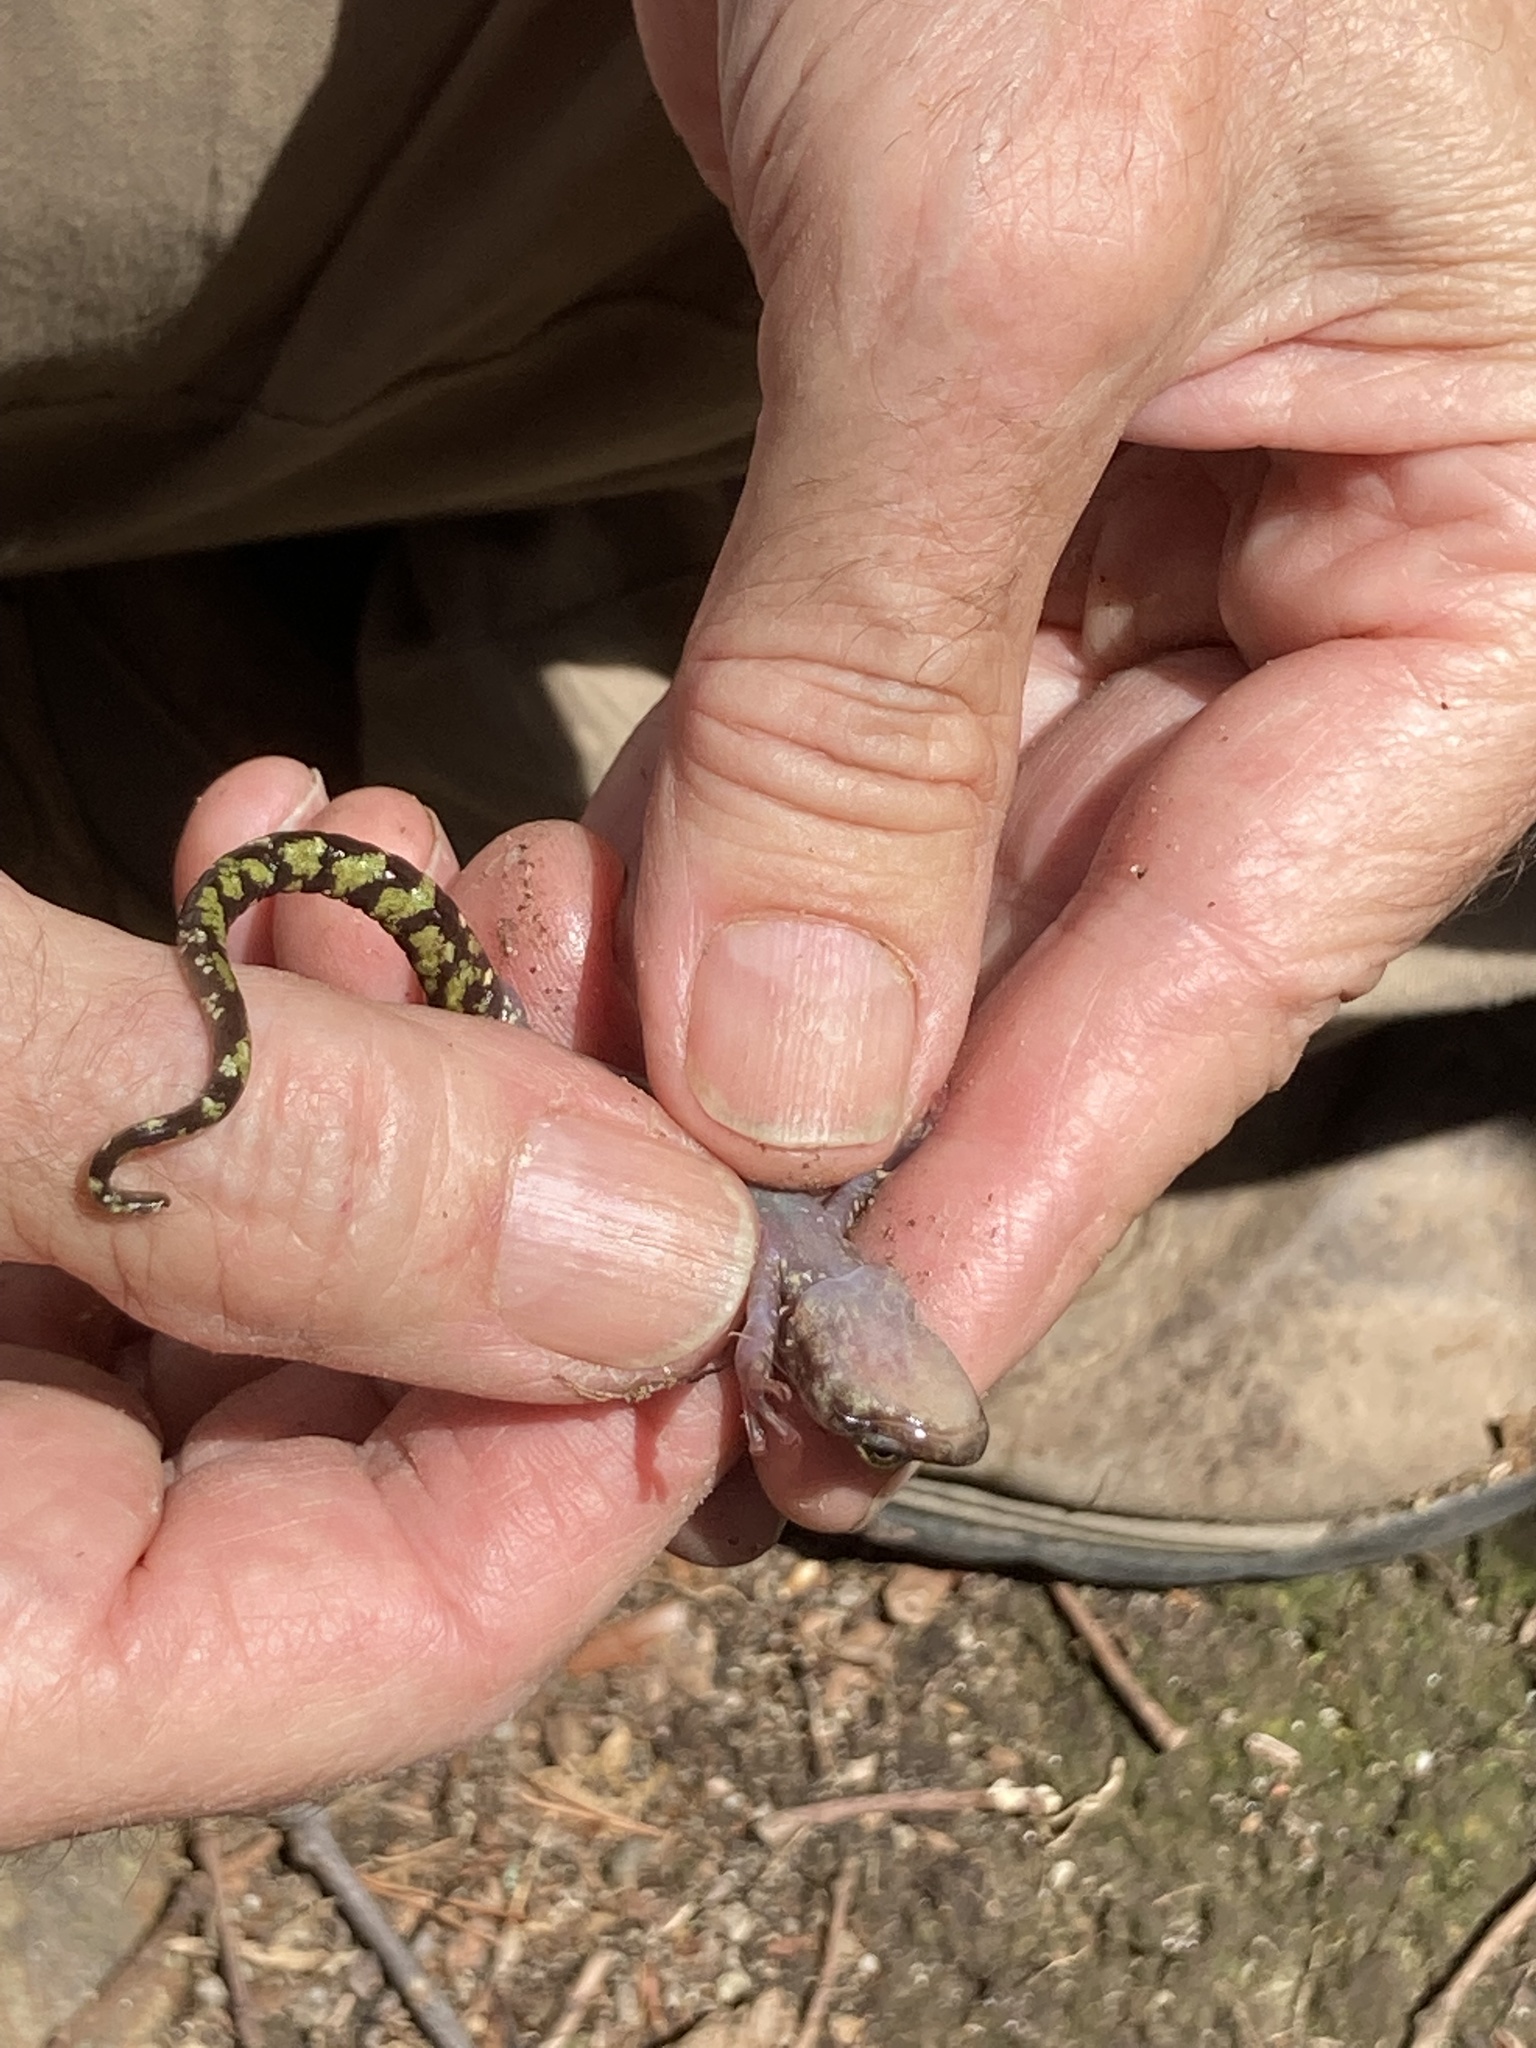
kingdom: Animalia
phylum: Chordata
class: Amphibia
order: Caudata
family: Plethodontidae
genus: Aneides
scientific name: Aneides aeneus
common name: Green salamander
